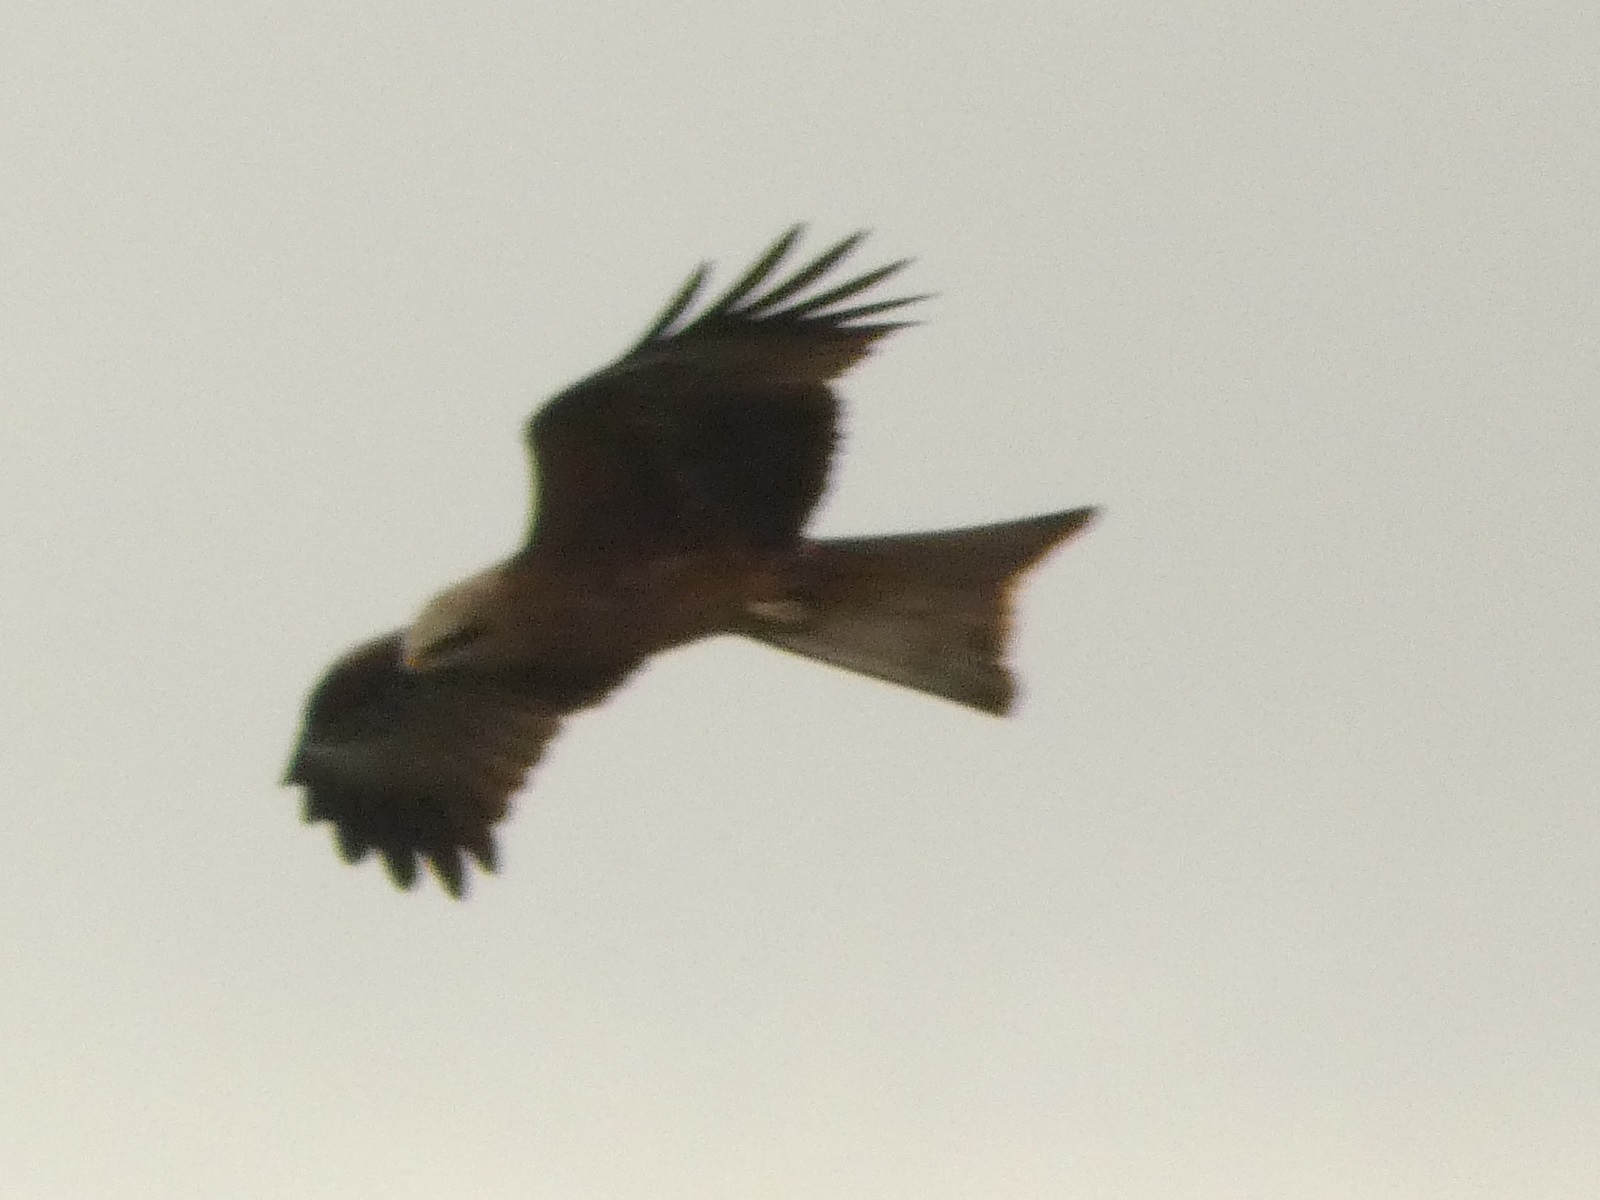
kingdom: Animalia
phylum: Chordata
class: Aves
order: Accipitriformes
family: Accipitridae
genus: Milvus
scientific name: Milvus migrans
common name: Black kite
